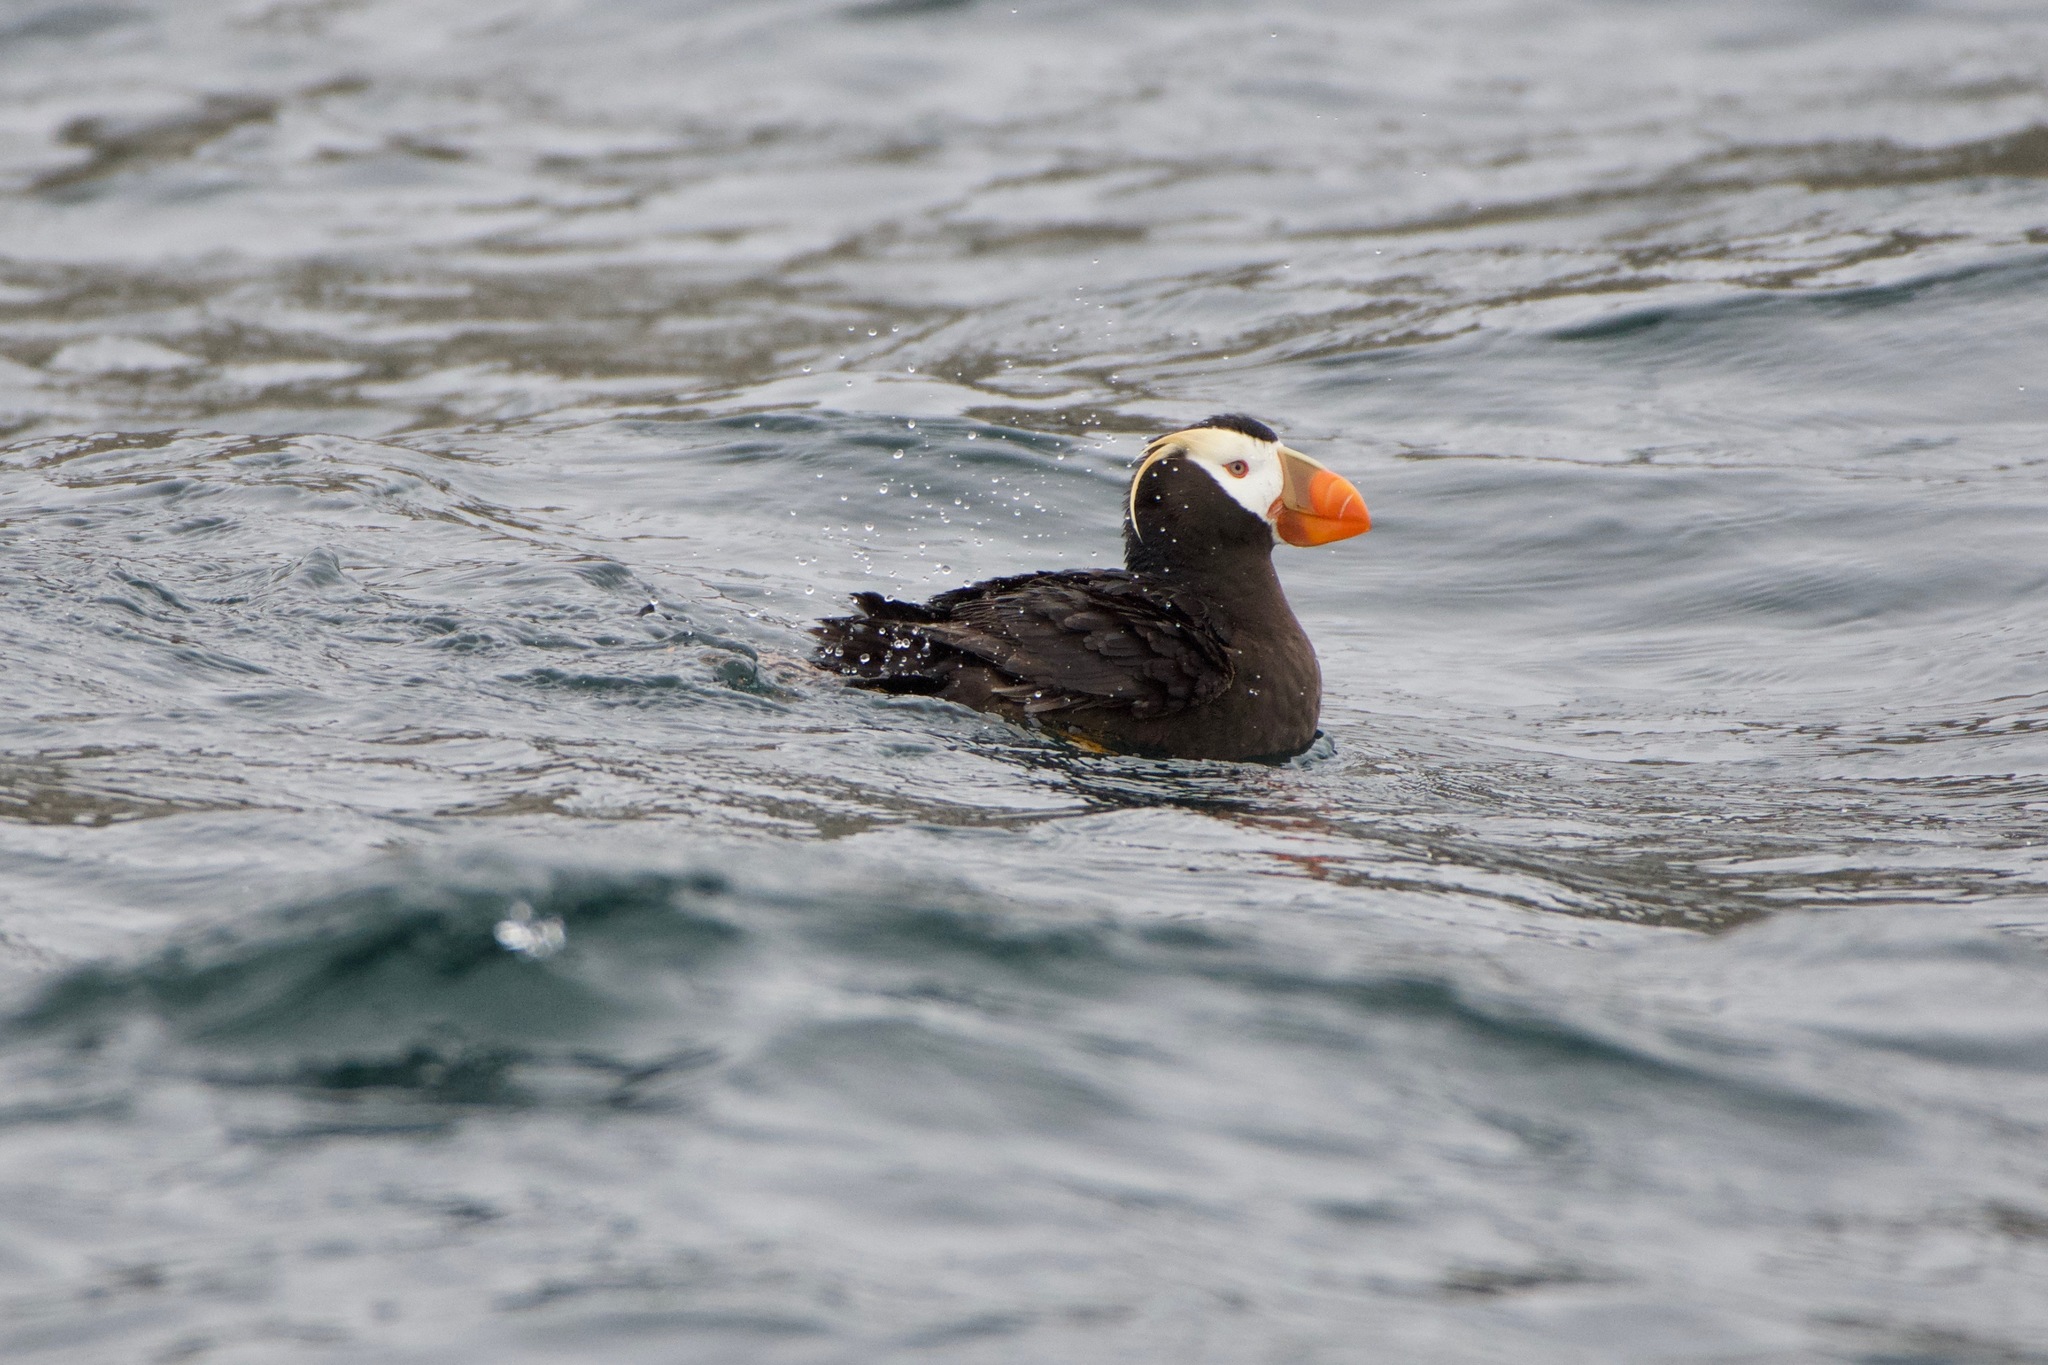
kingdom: Animalia
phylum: Chordata
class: Aves
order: Charadriiformes
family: Alcidae
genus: Fratercula
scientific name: Fratercula cirrhata
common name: Tufted puffin
